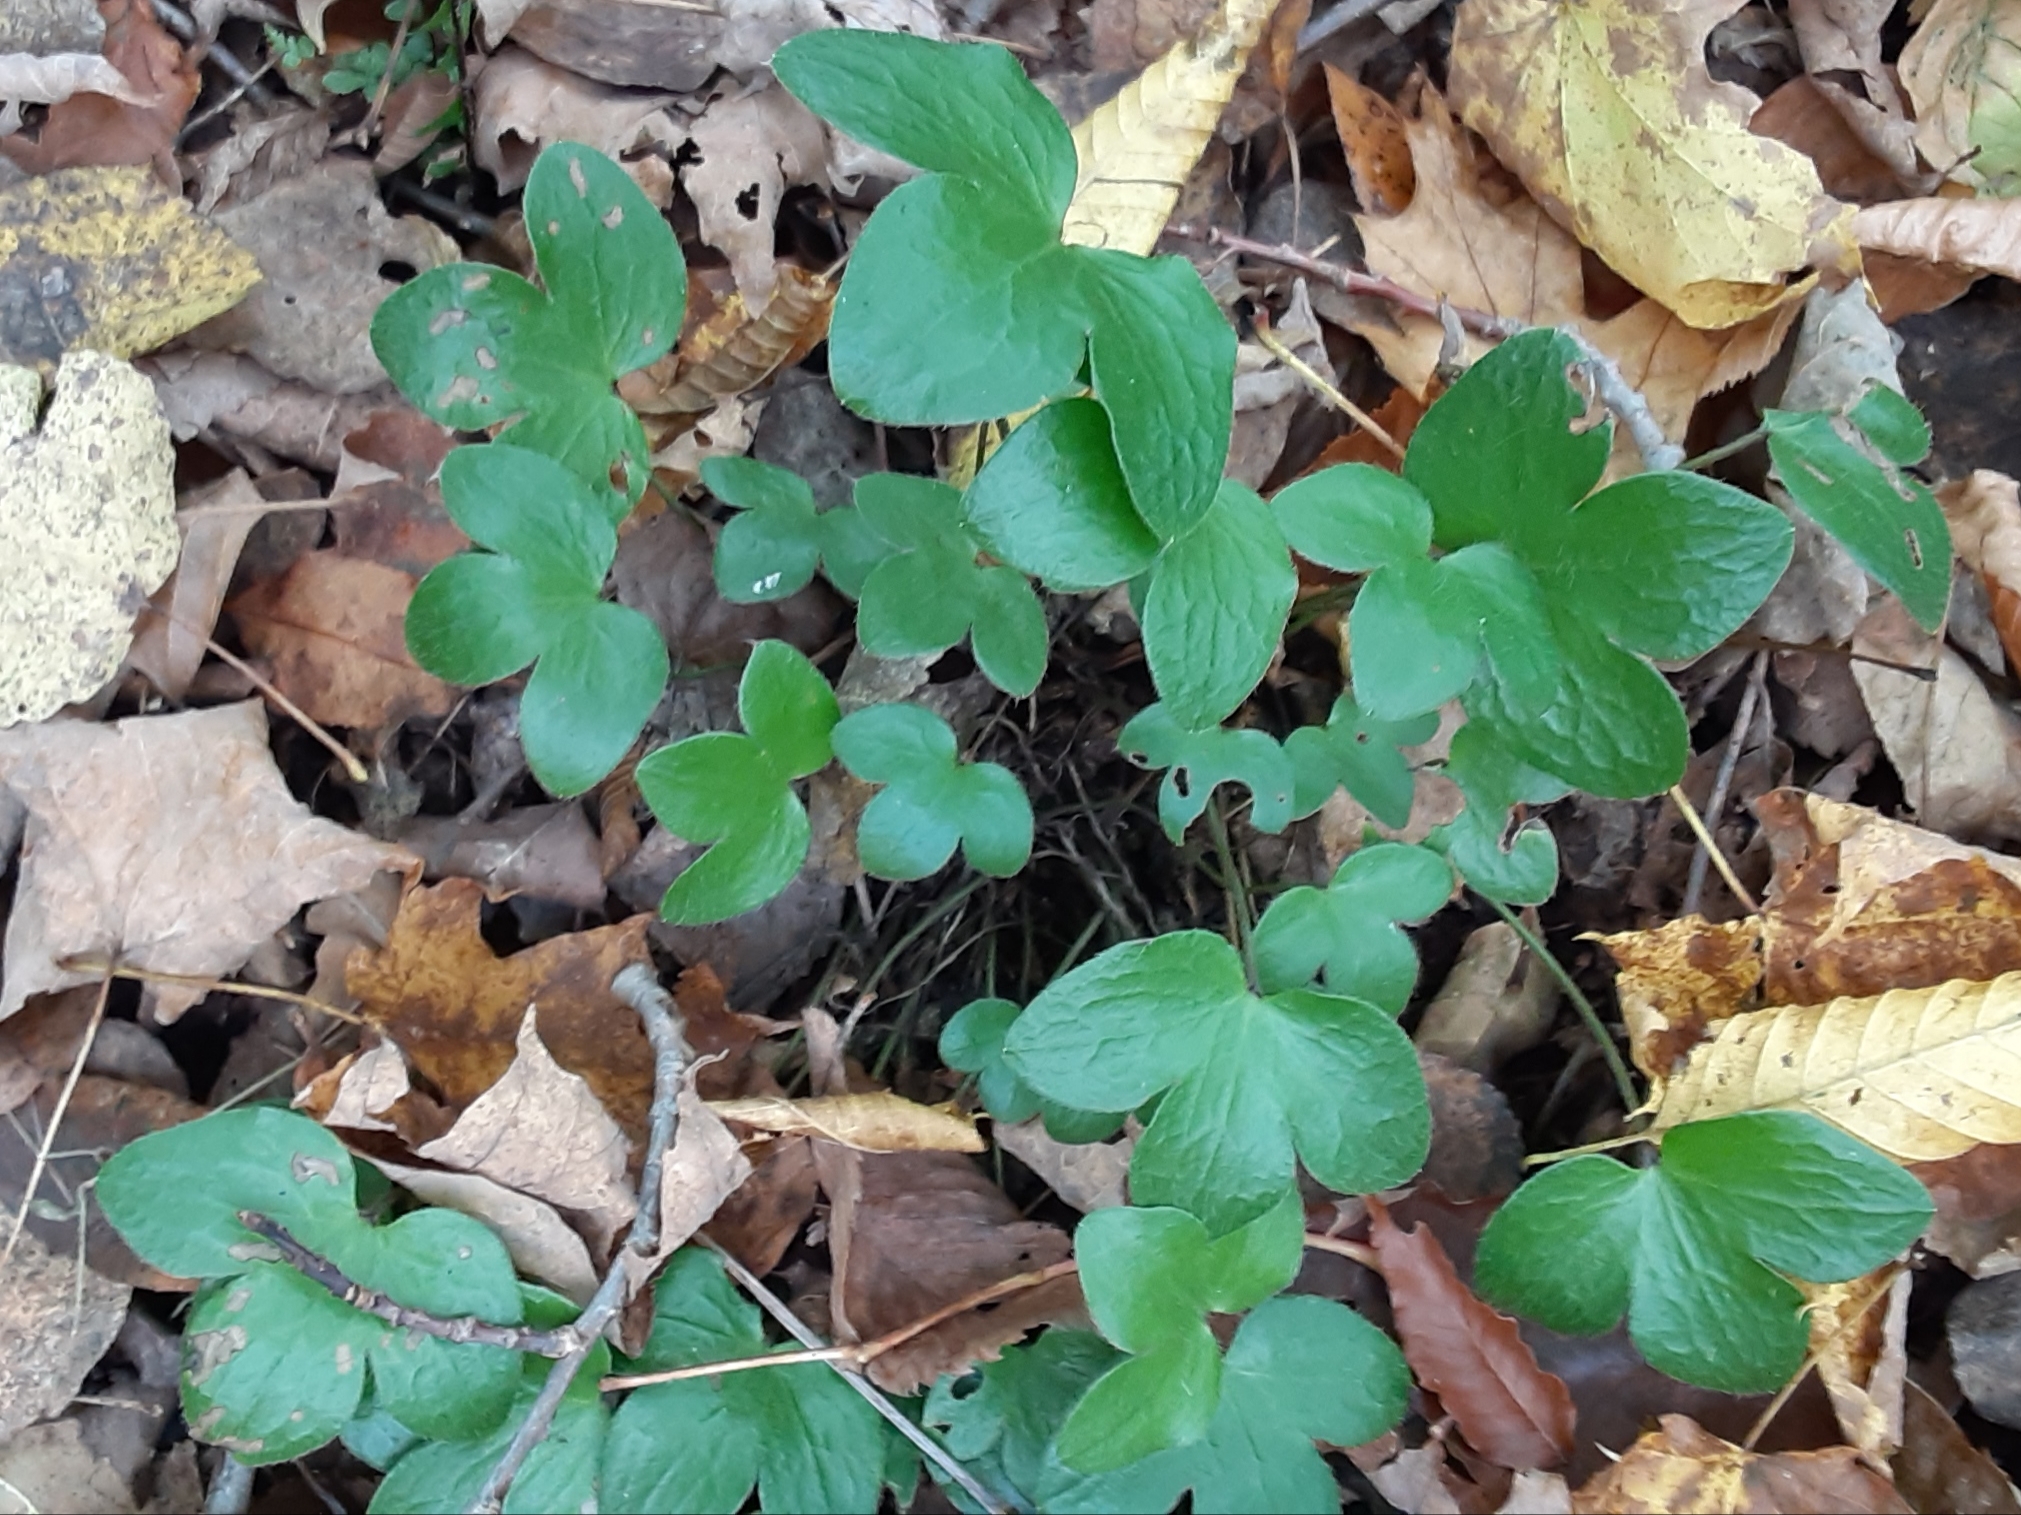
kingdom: Plantae
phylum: Tracheophyta
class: Magnoliopsida
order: Ranunculales
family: Ranunculaceae
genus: Hepatica
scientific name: Hepatica americana
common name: American hepatica
